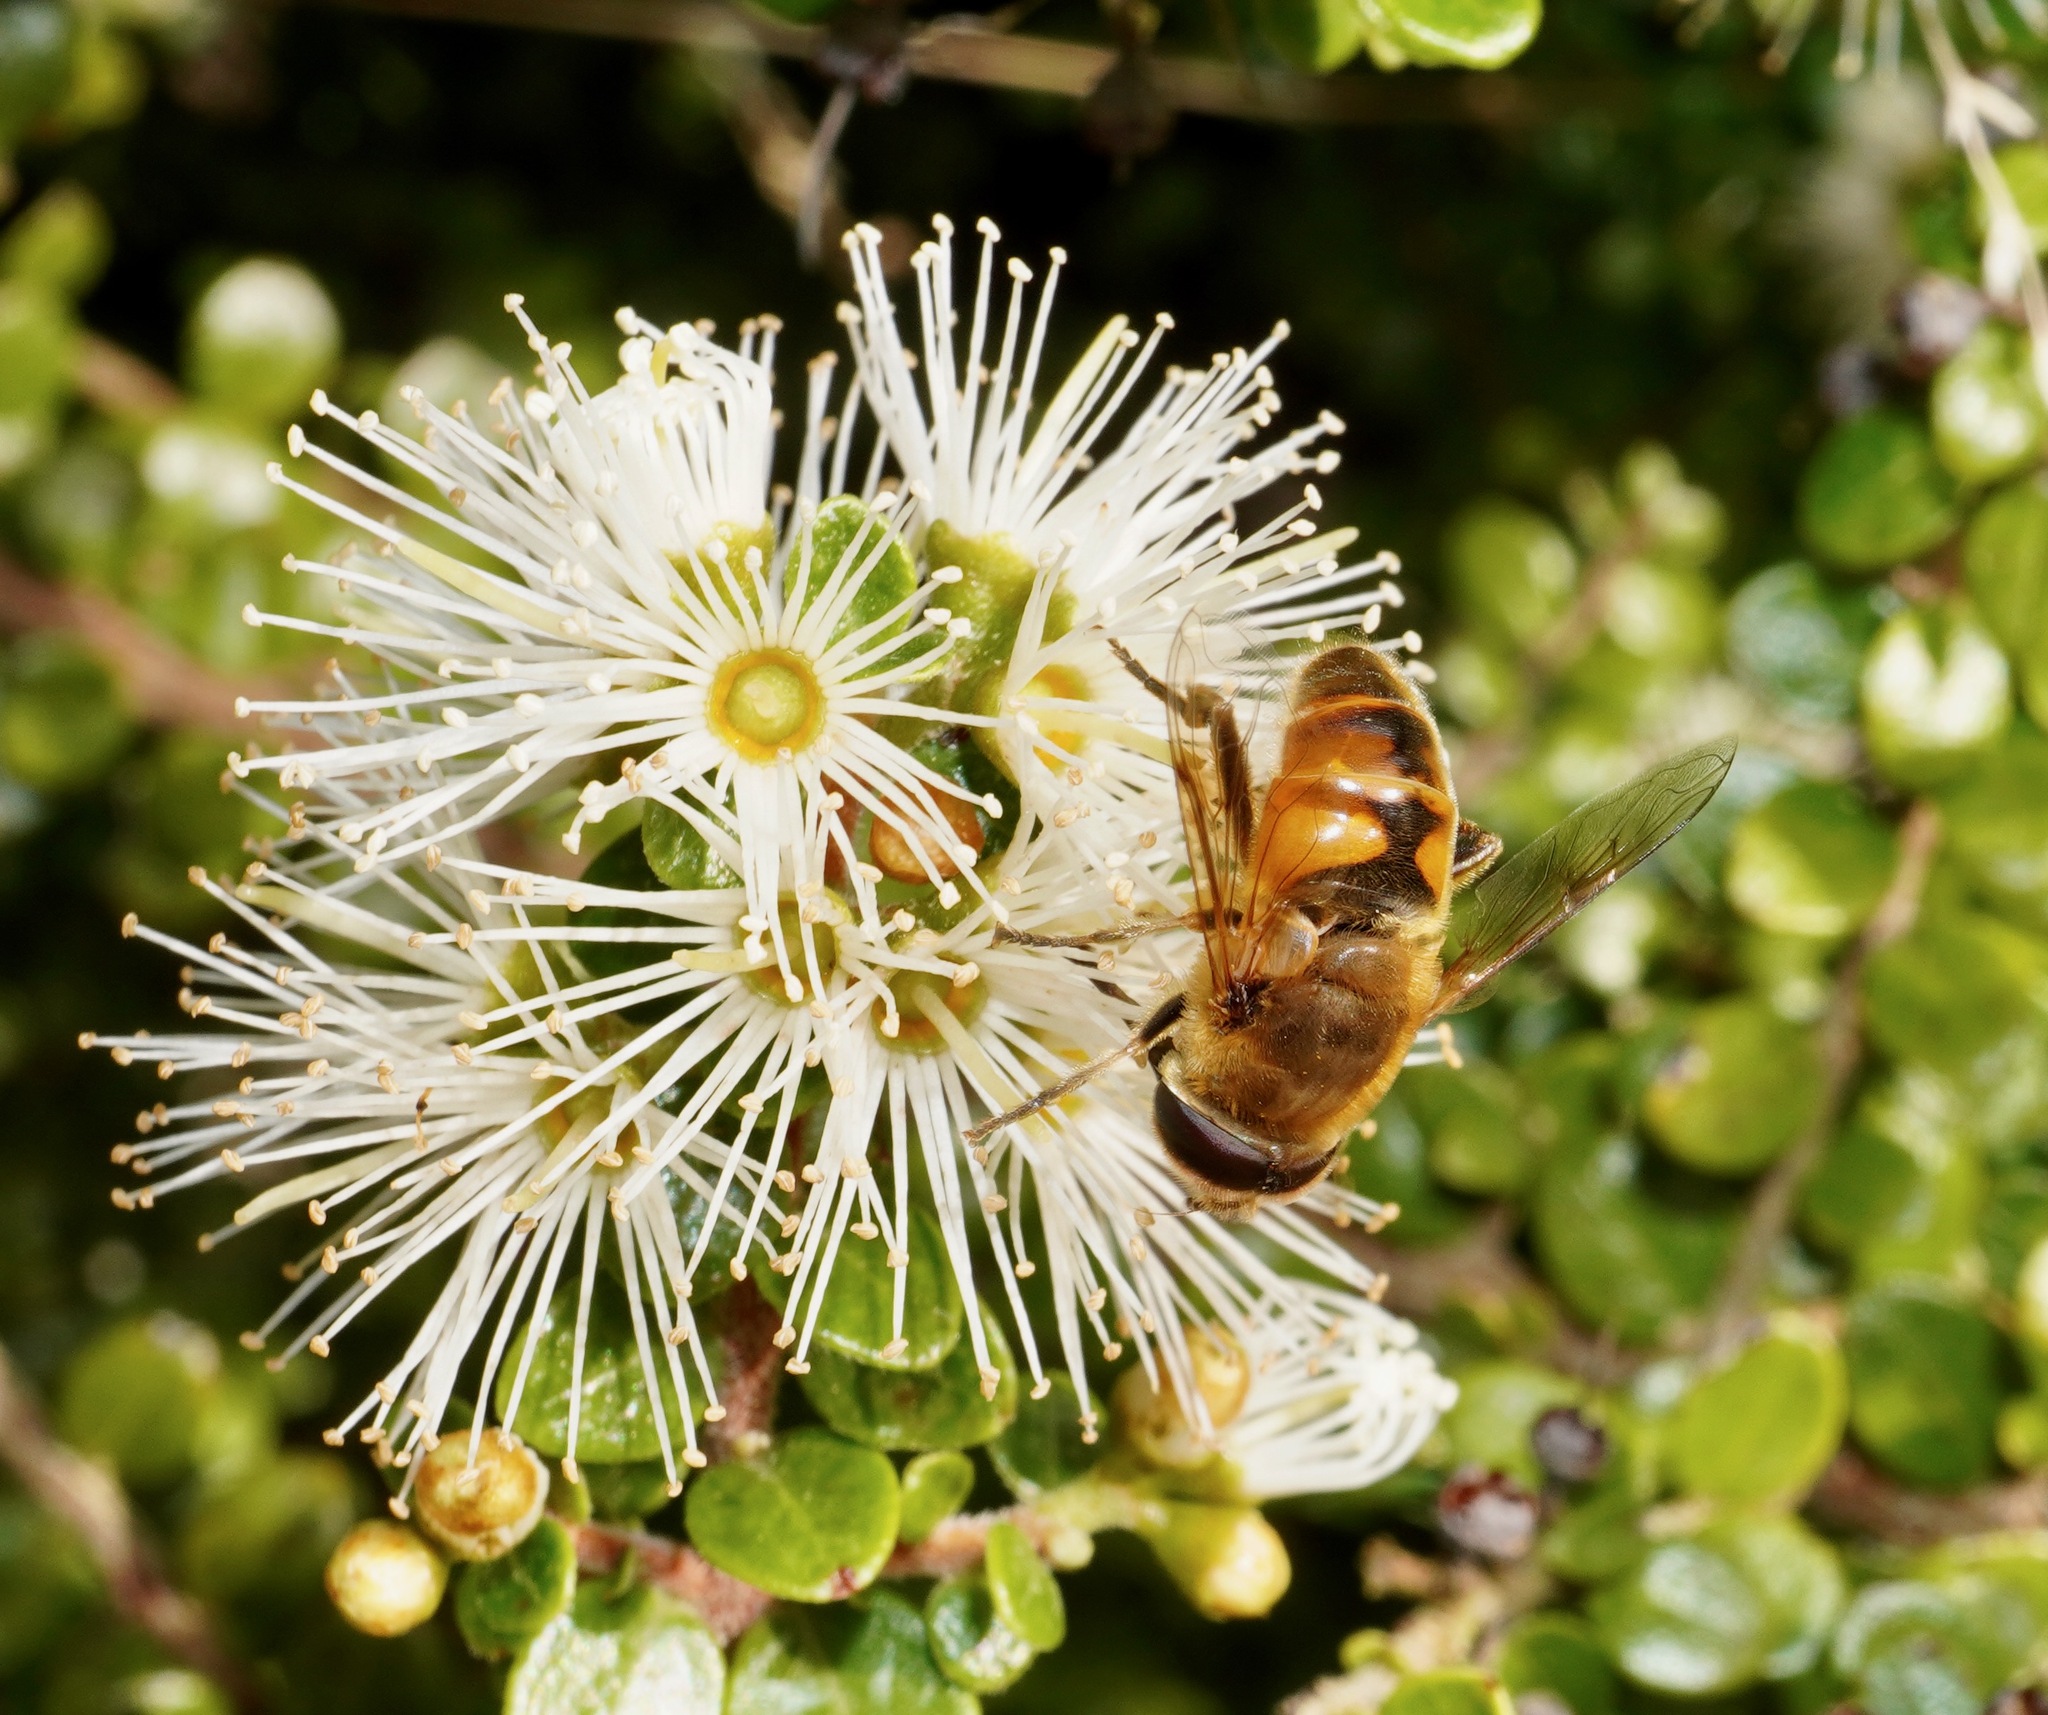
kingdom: Animalia
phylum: Arthropoda
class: Insecta
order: Diptera
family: Syrphidae
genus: Eristalis
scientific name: Eristalis tenax
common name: Drone fly
